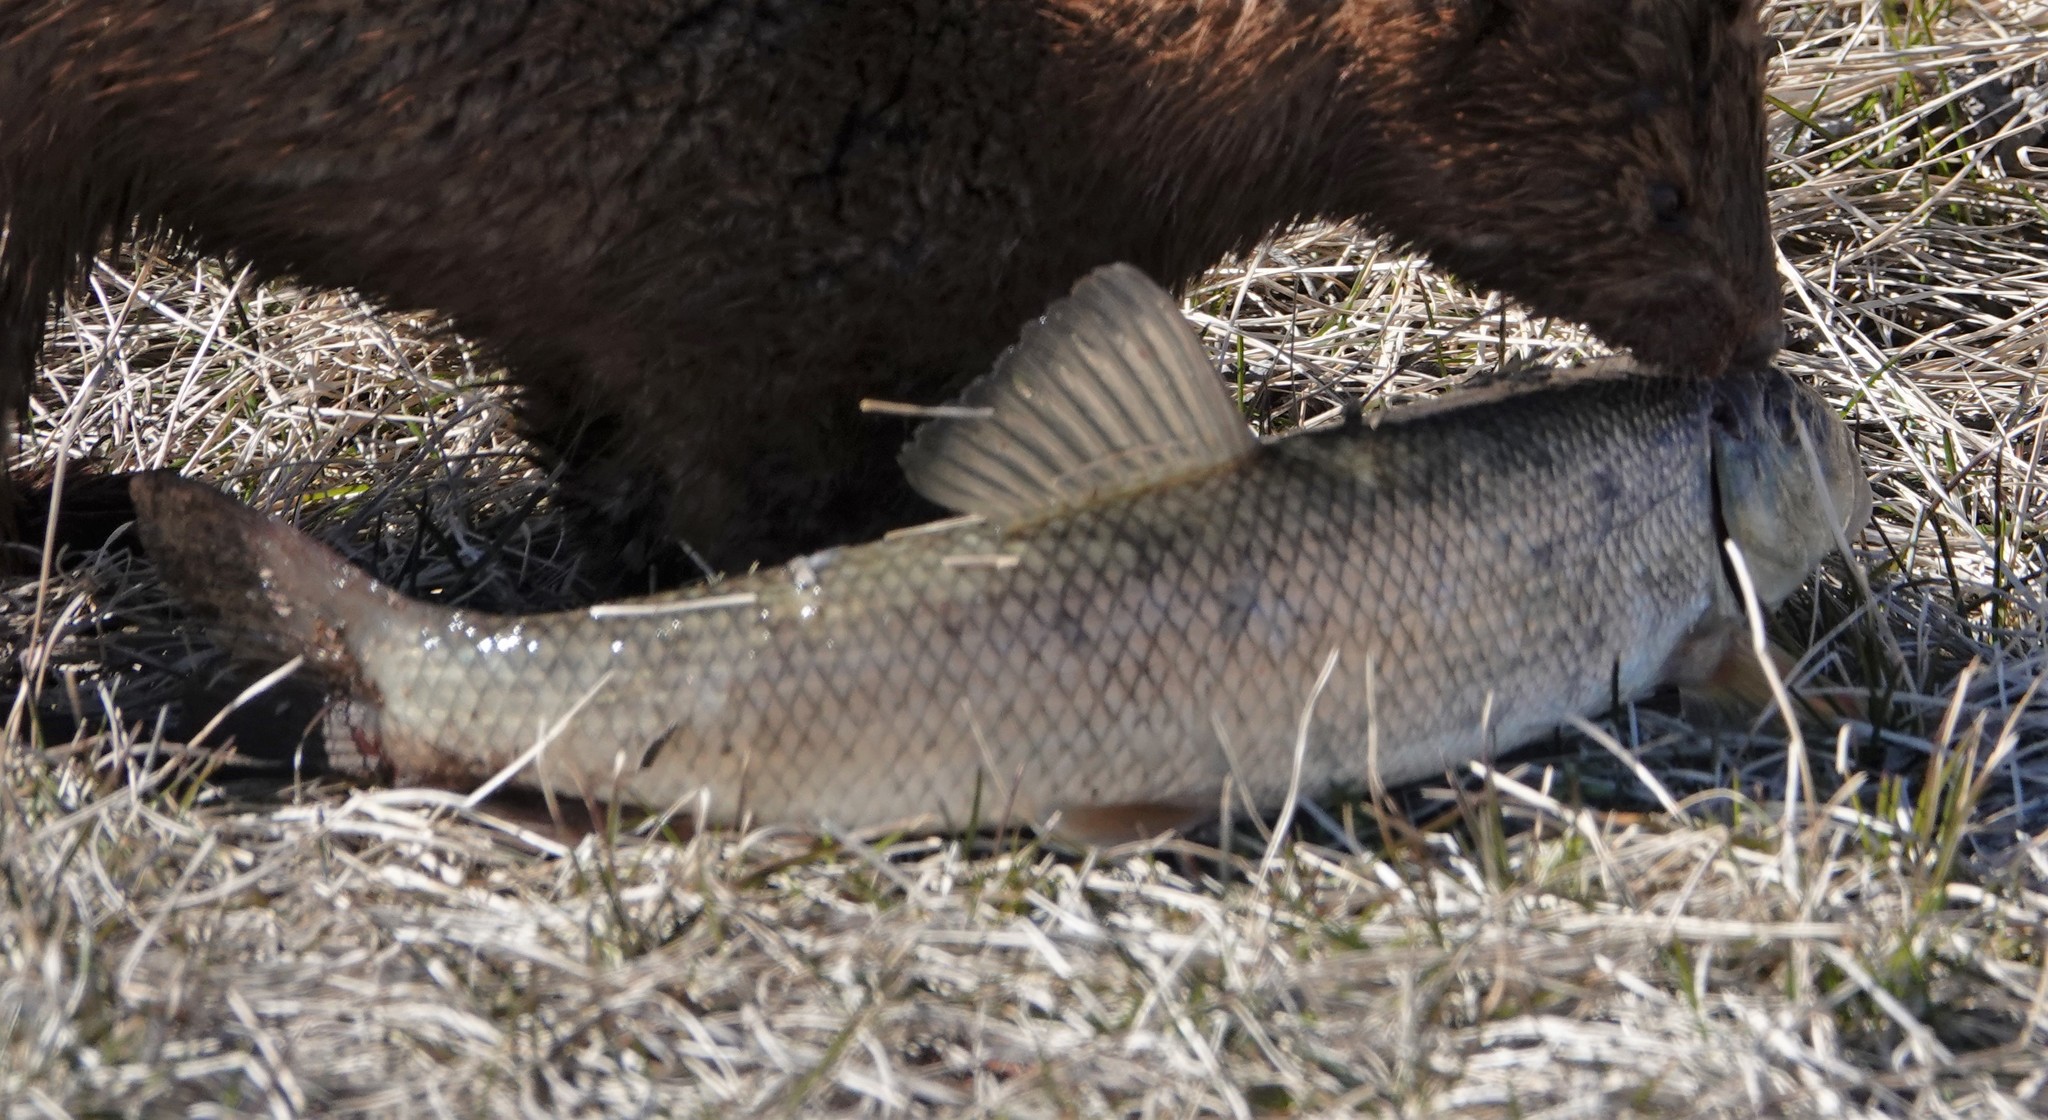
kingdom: Animalia
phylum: Chordata
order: Cypriniformes
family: Catostomidae
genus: Catostomus
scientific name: Catostomus commersonii
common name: White sucker
